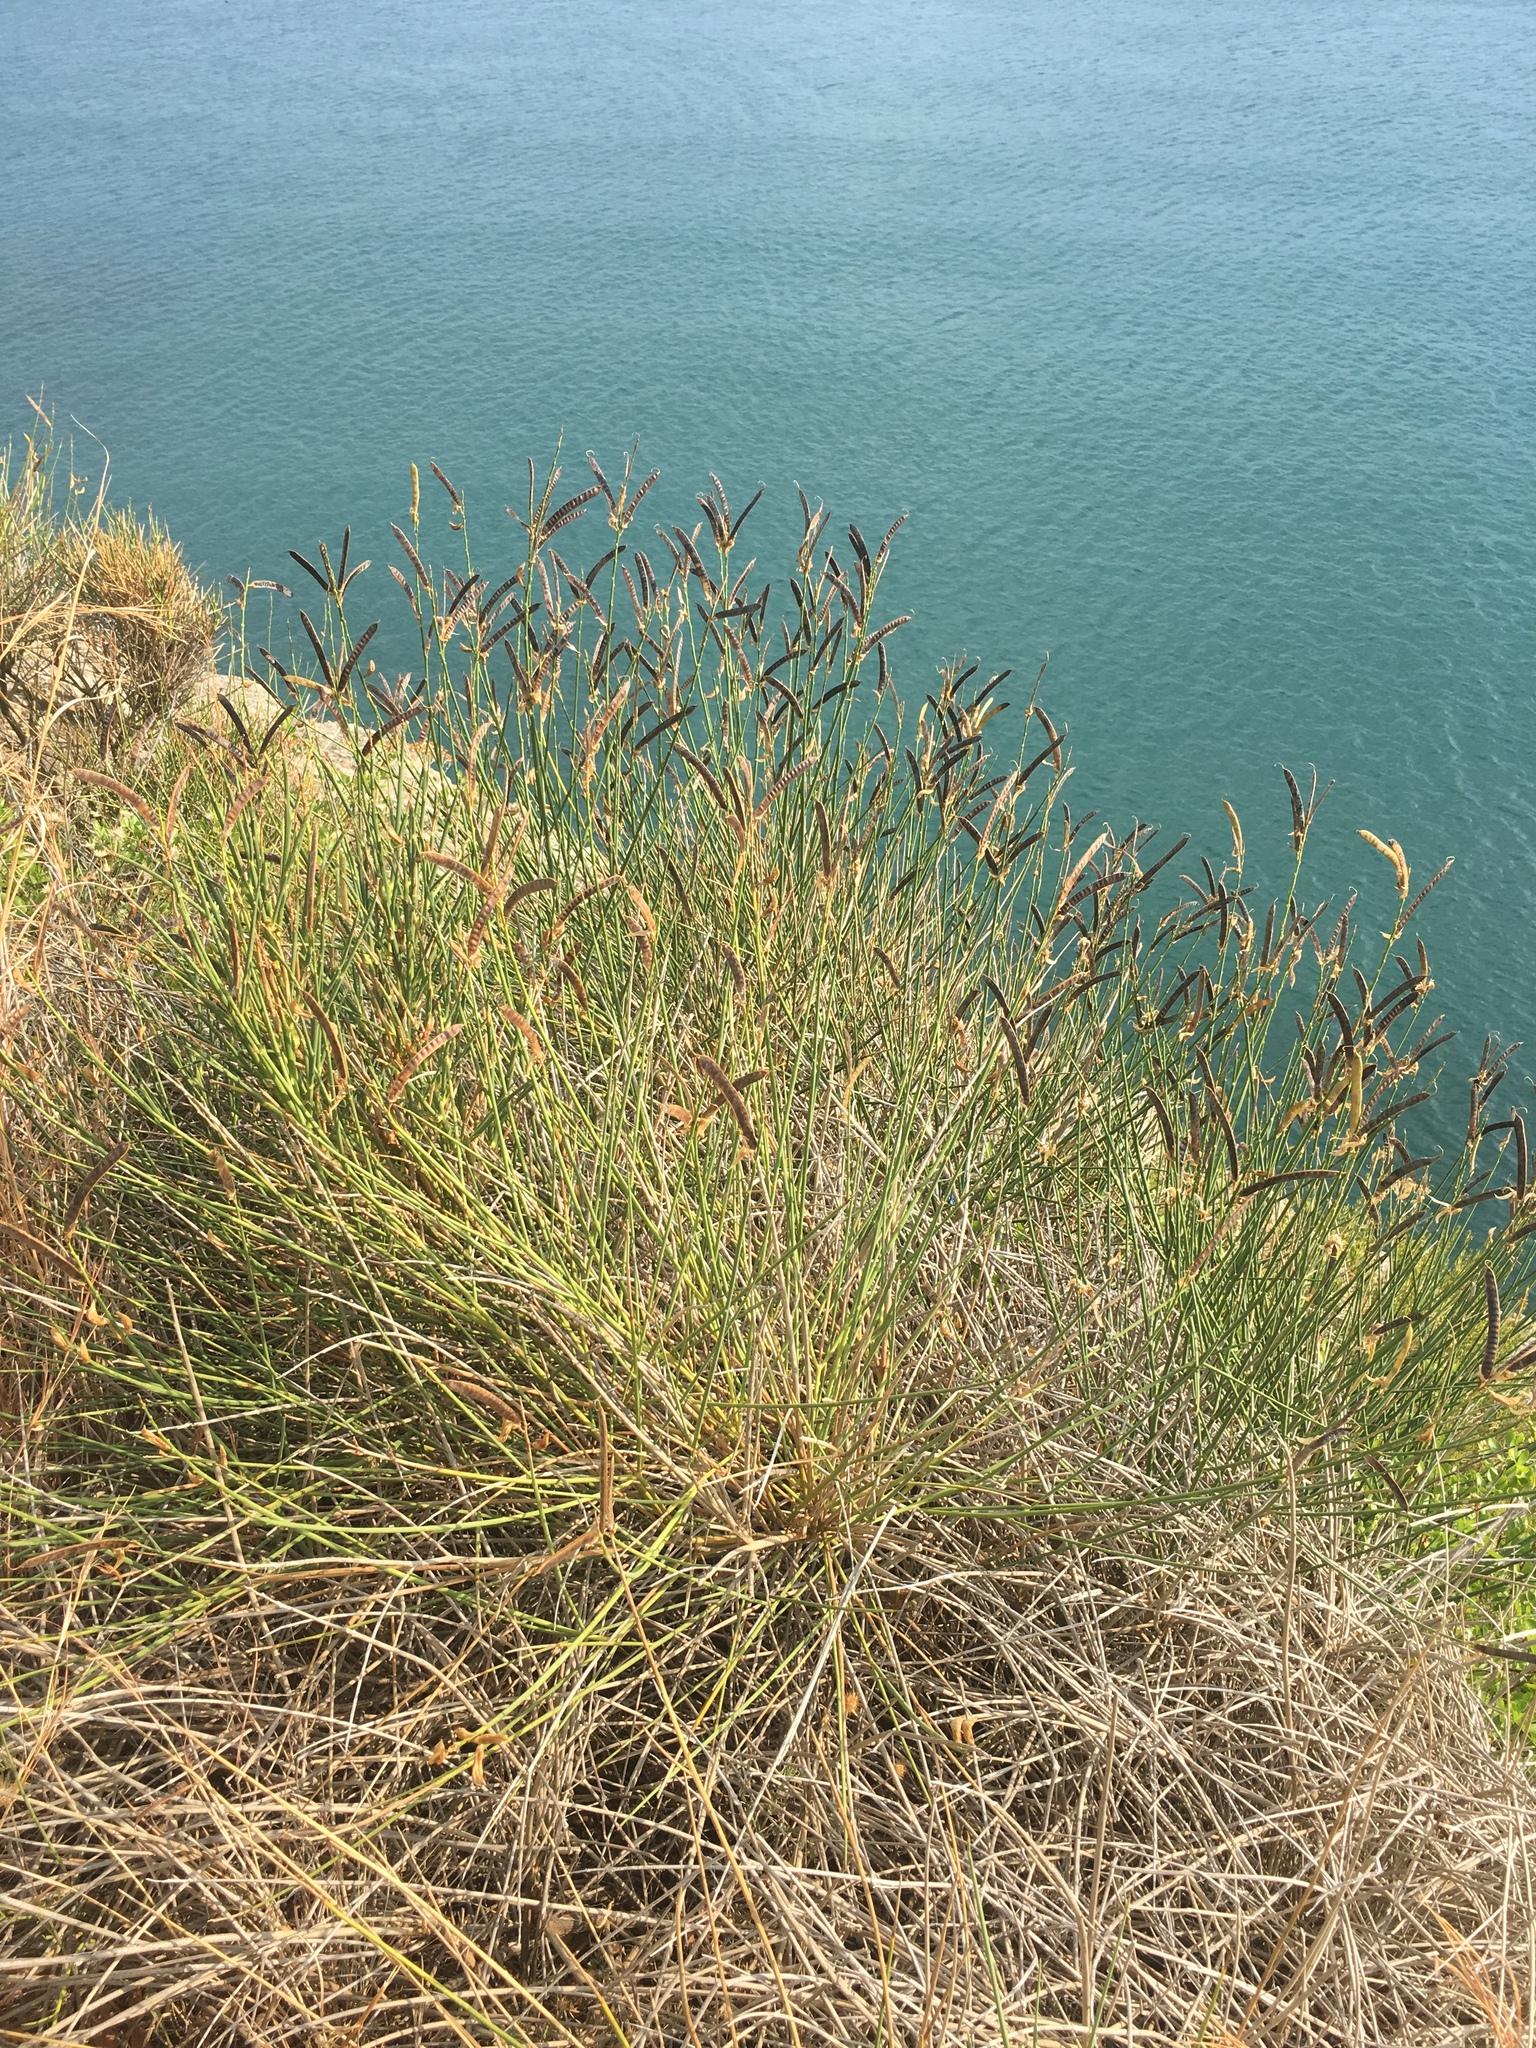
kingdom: Plantae
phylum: Tracheophyta
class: Magnoliopsida
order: Fabales
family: Fabaceae
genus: Spartium
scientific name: Spartium junceum
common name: Spanish broom
